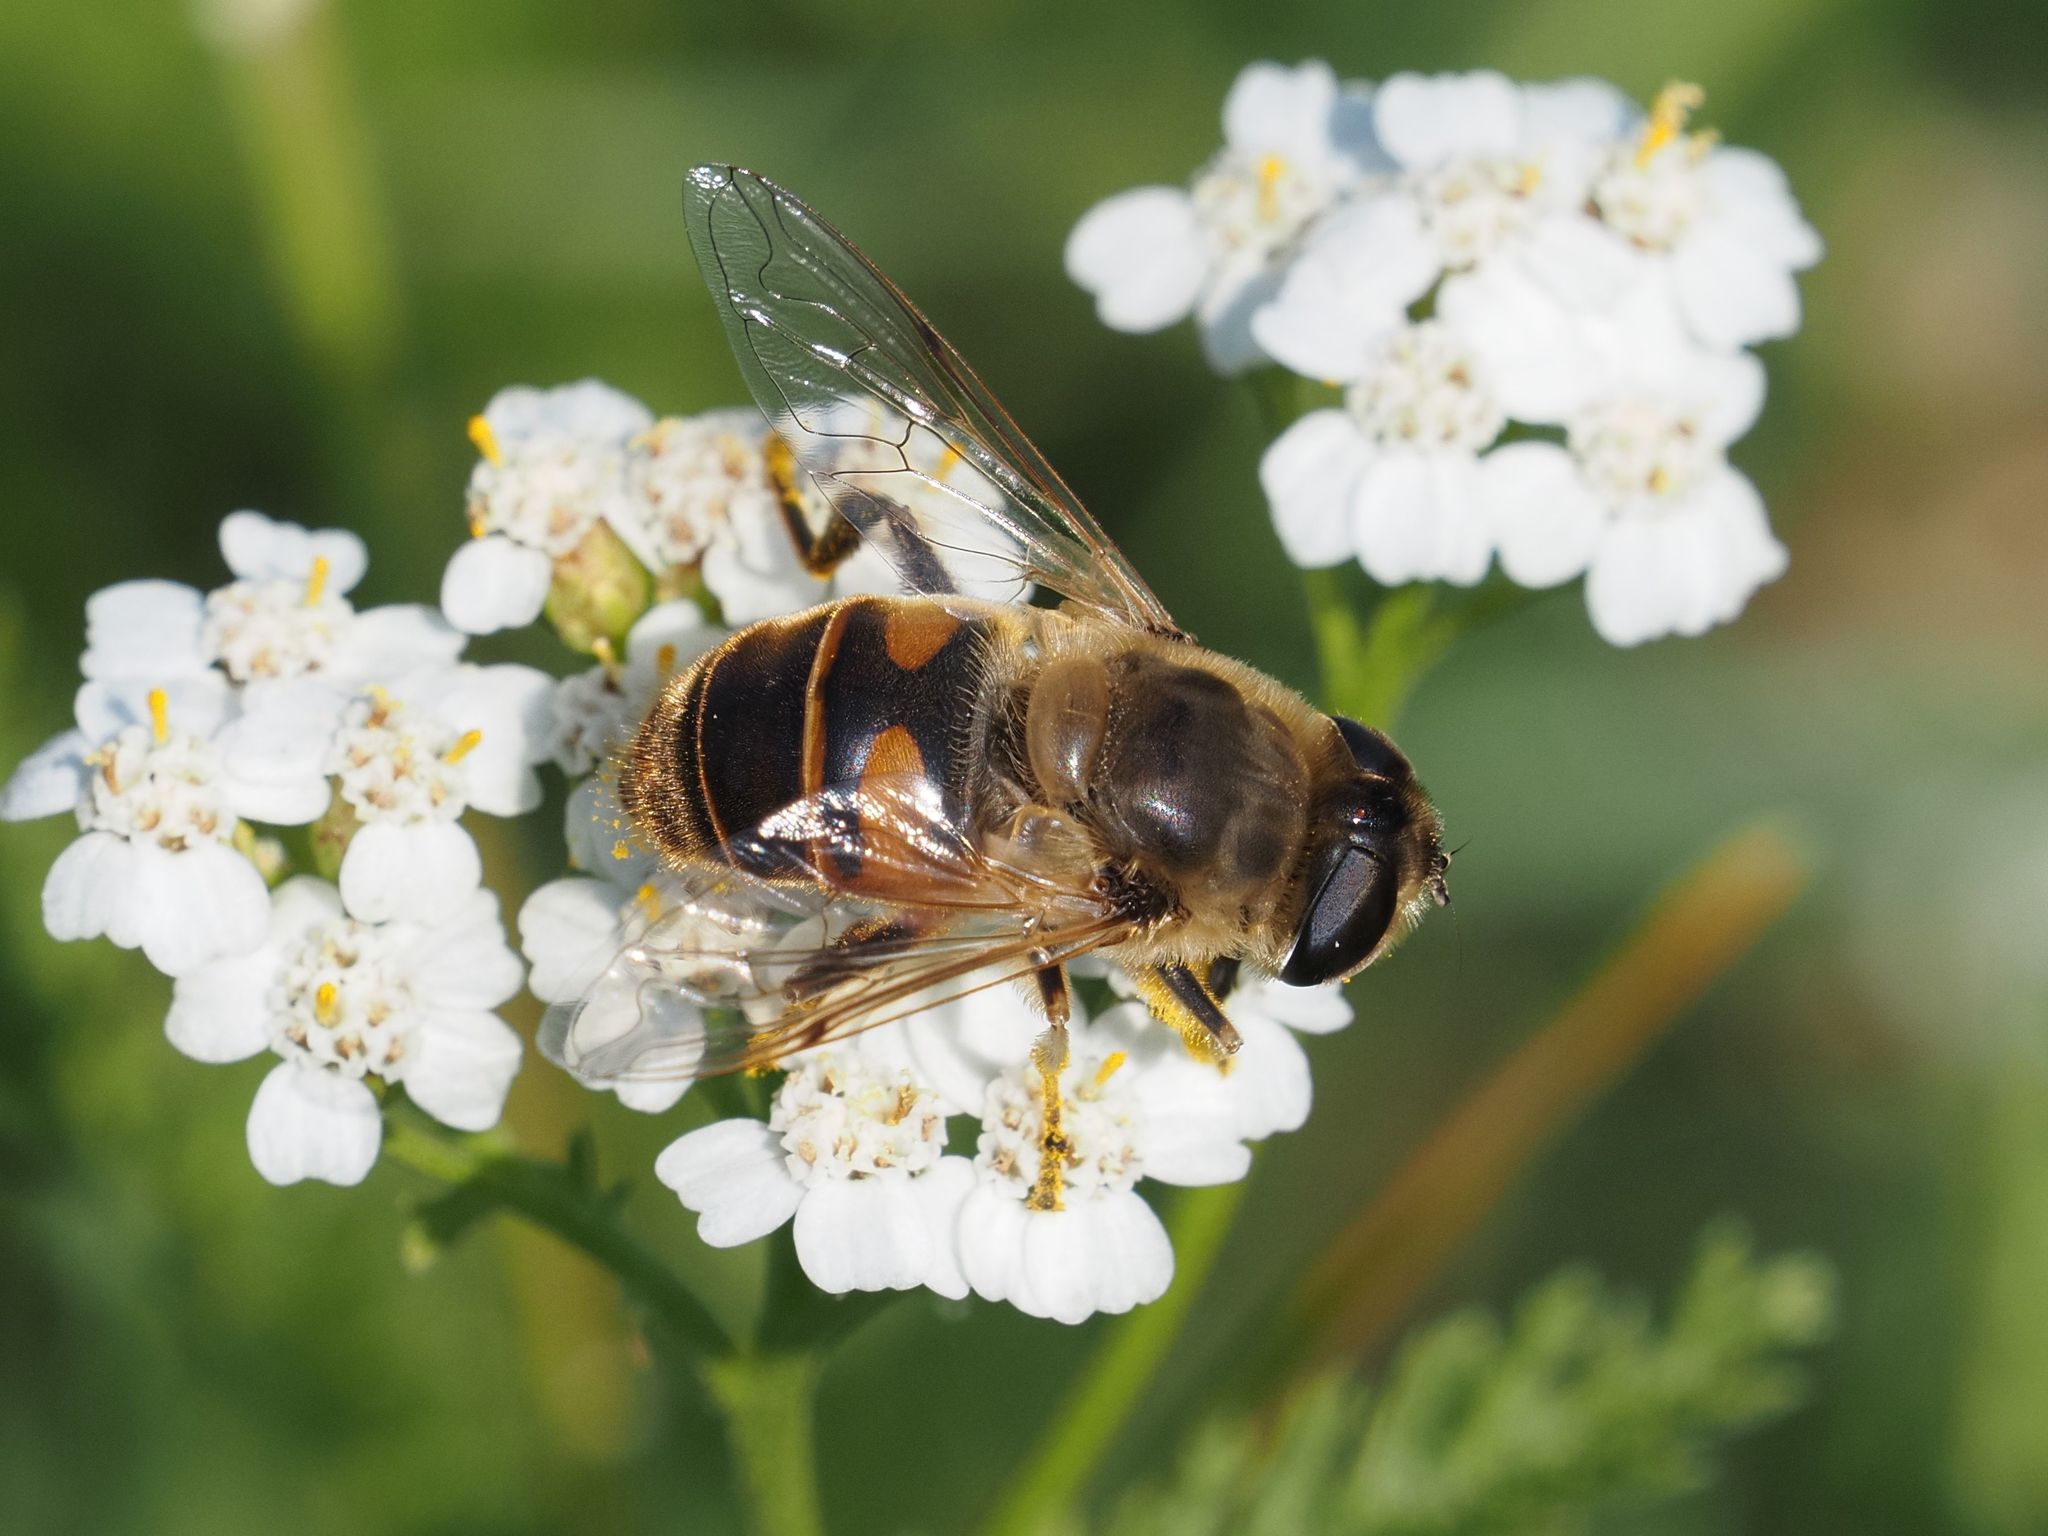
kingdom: Animalia
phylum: Arthropoda
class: Insecta
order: Diptera
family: Syrphidae
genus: Eristalis
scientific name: Eristalis tenax
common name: Drone fly
